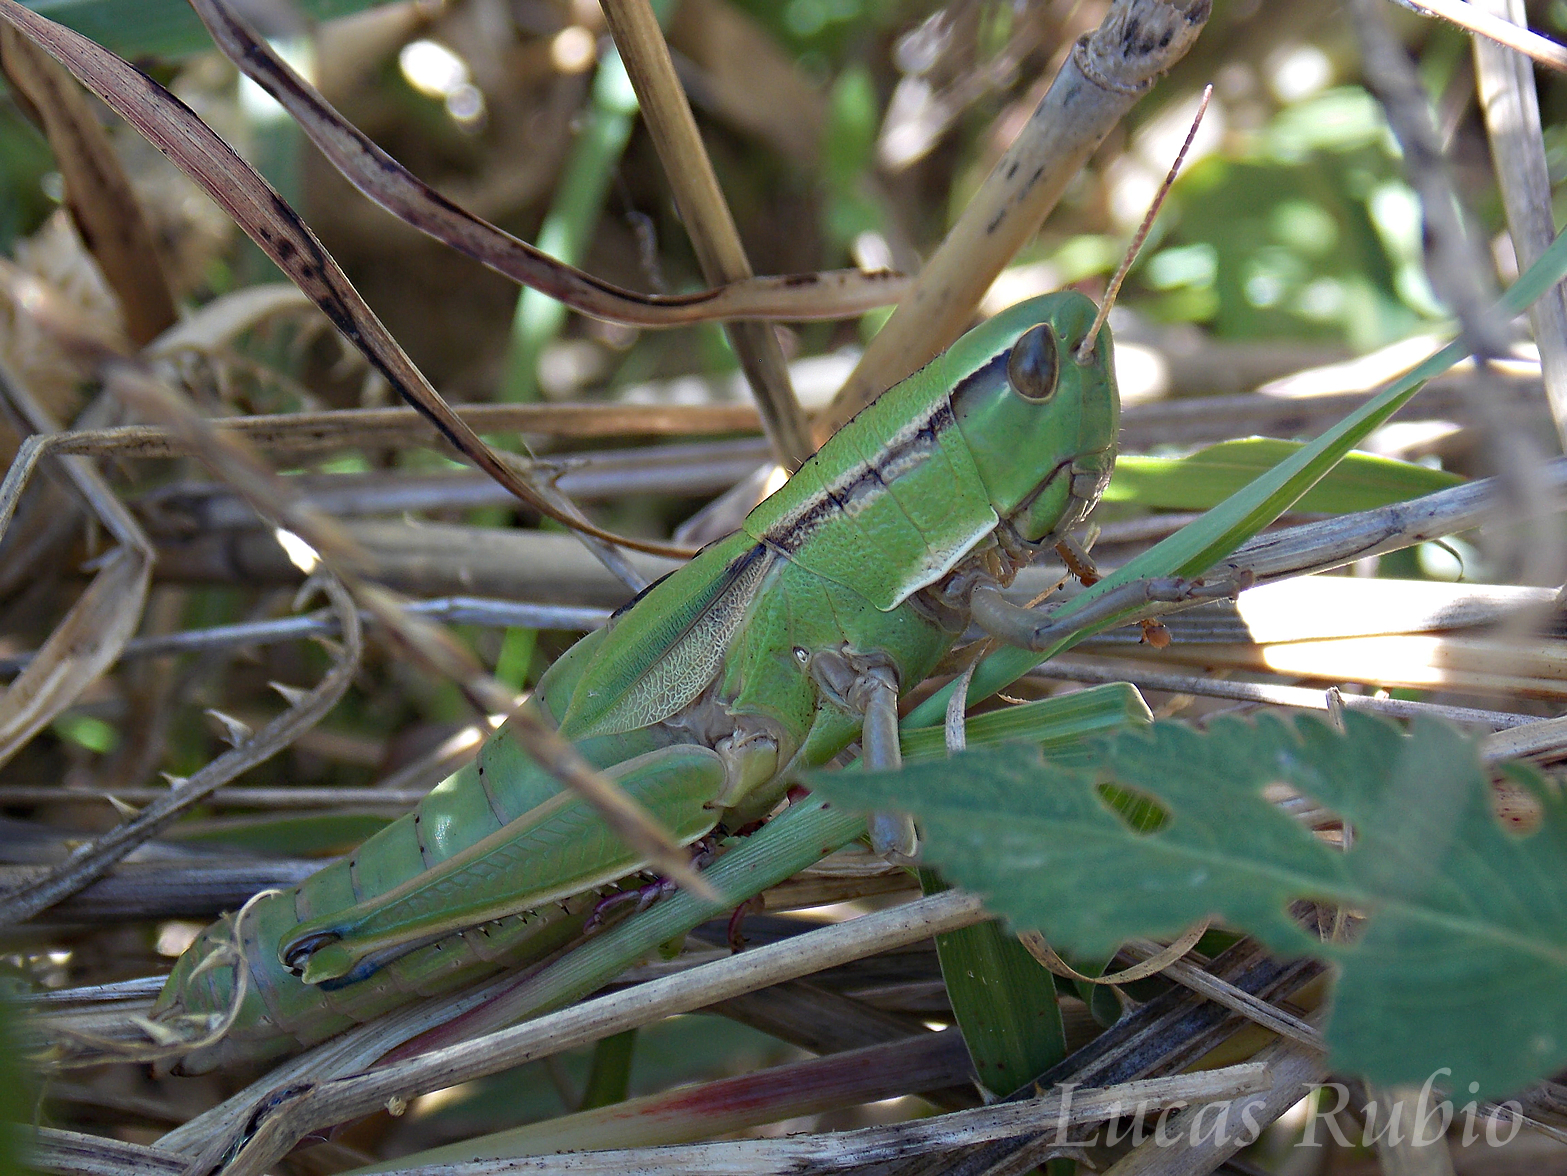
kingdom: Animalia
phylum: Arthropoda
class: Insecta
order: Orthoptera
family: Acrididae
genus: Aleuas
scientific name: Aleuas vitticollis
